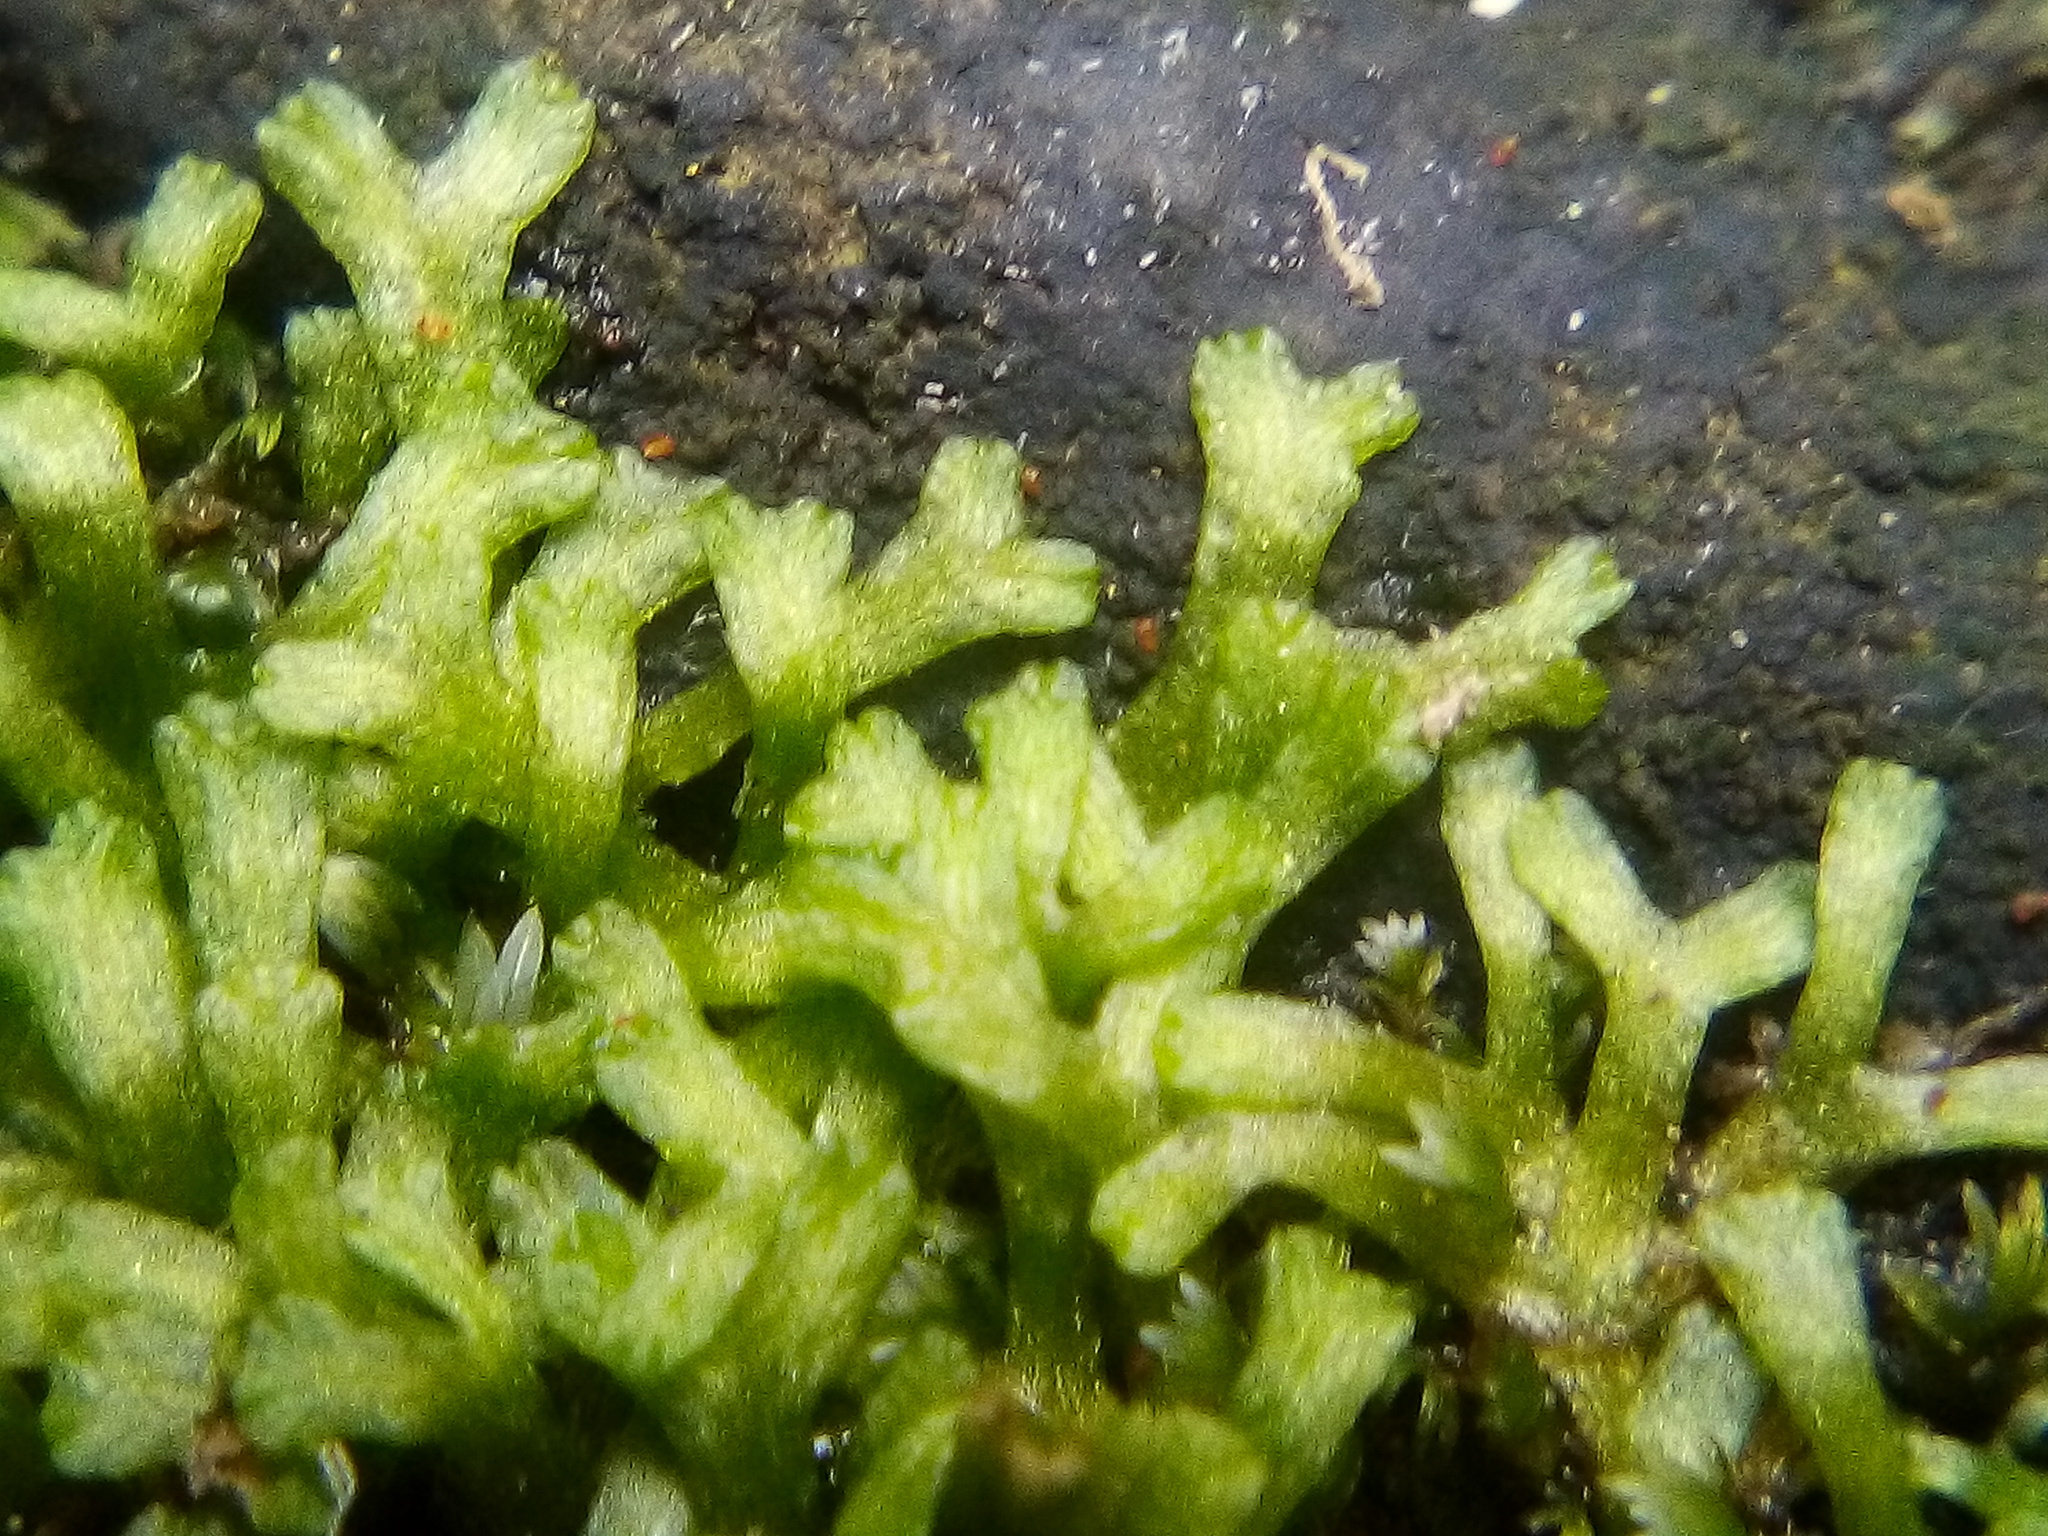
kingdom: Plantae
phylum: Marchantiophyta
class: Marchantiopsida
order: Marchantiales
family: Ricciaceae
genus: Riccia
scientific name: Riccia fluitans
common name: Floating crystalwort
